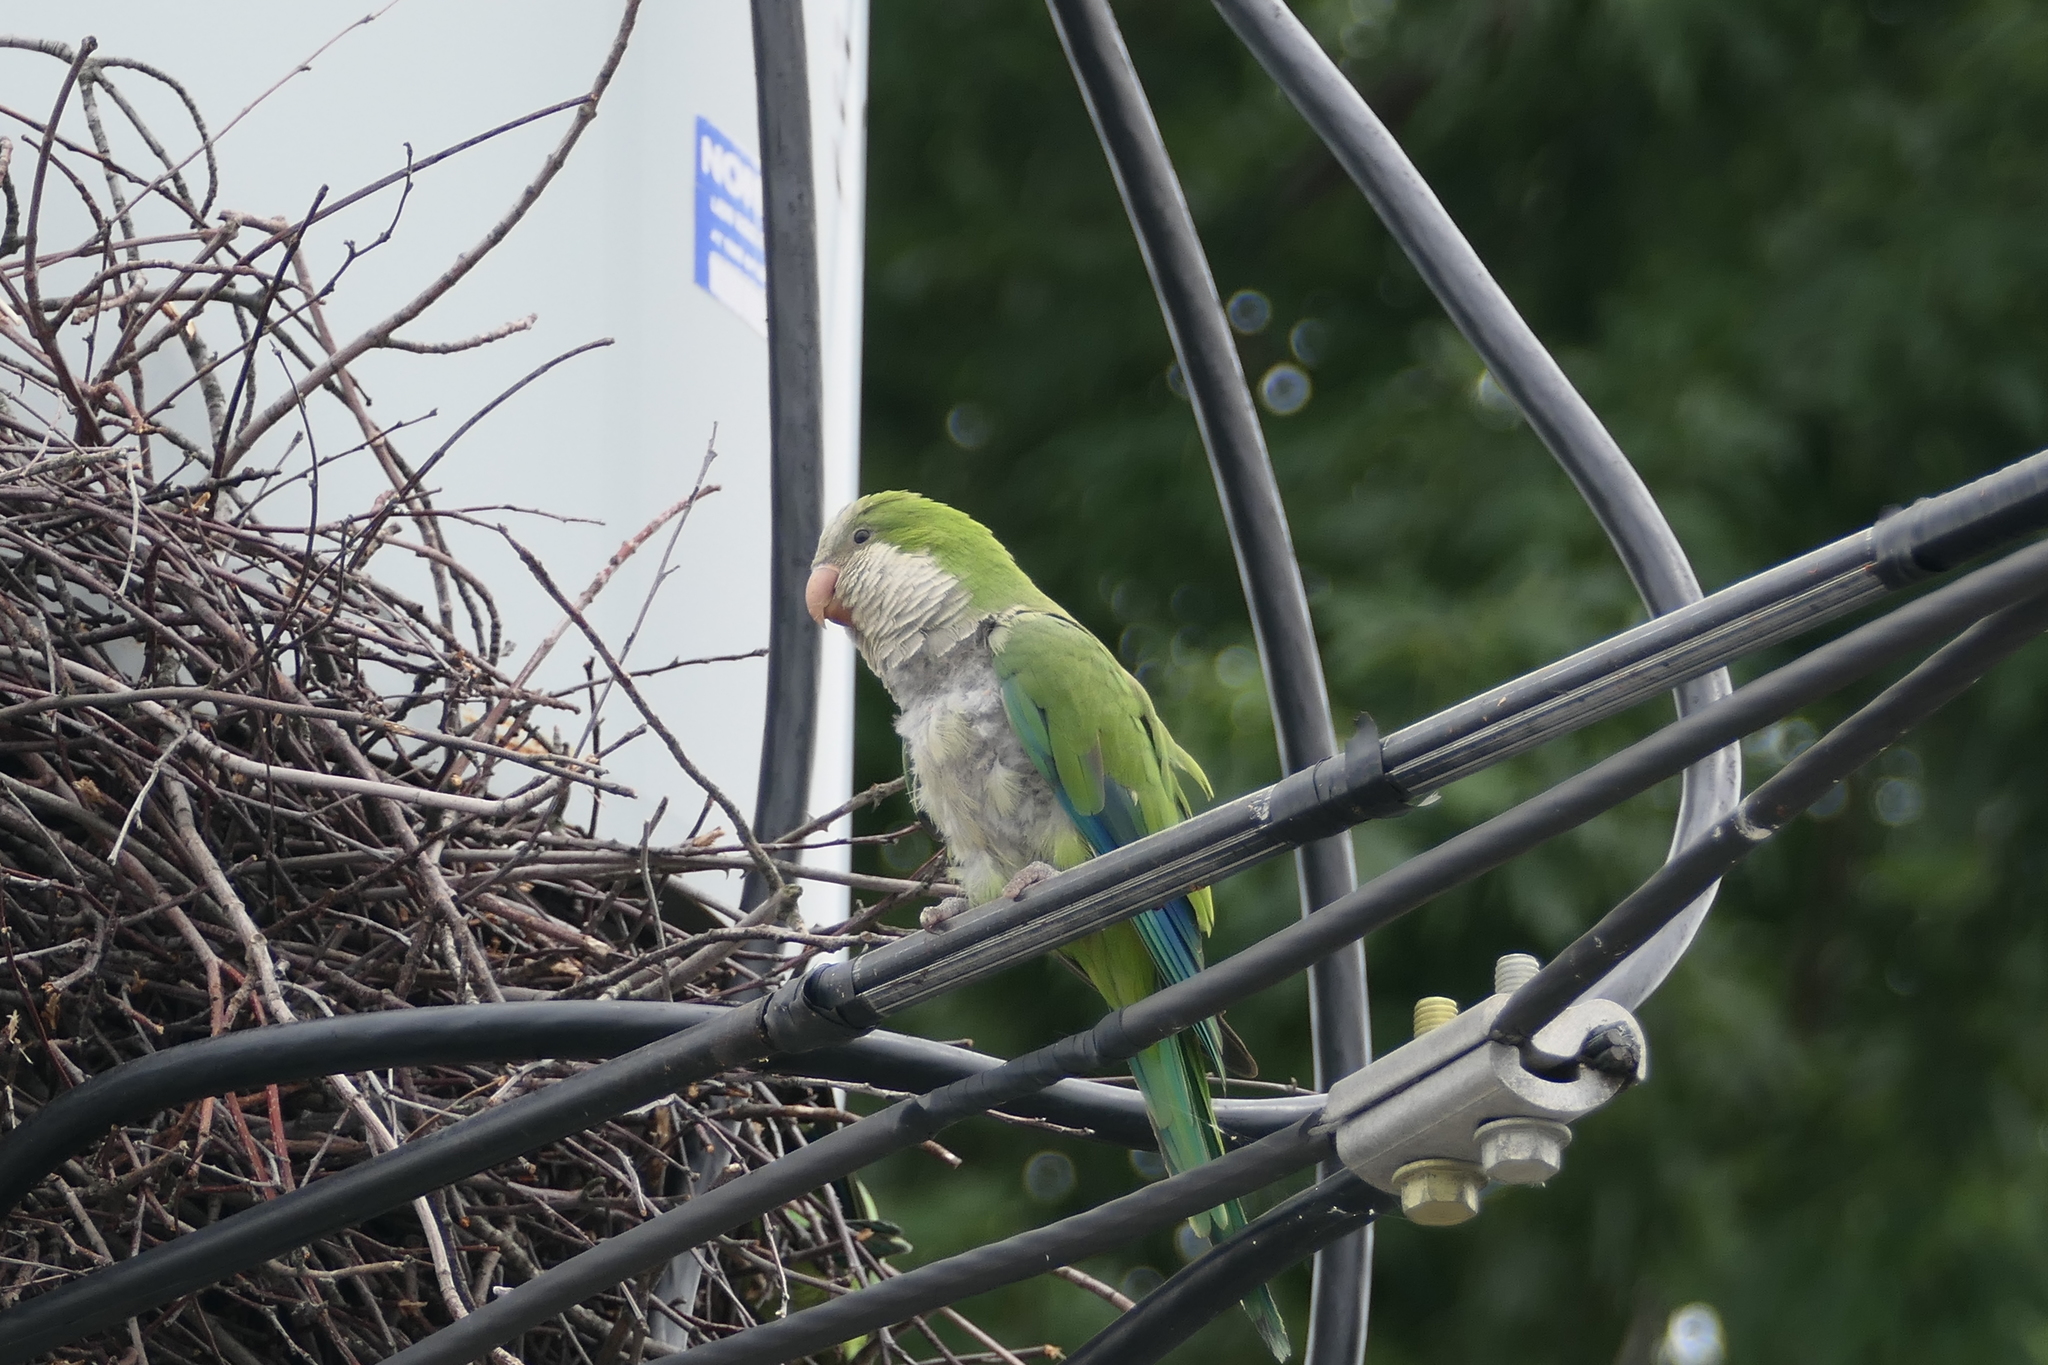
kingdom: Animalia
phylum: Chordata
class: Aves
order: Psittaciformes
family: Psittacidae
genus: Myiopsitta
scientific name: Myiopsitta monachus
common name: Monk parakeet
